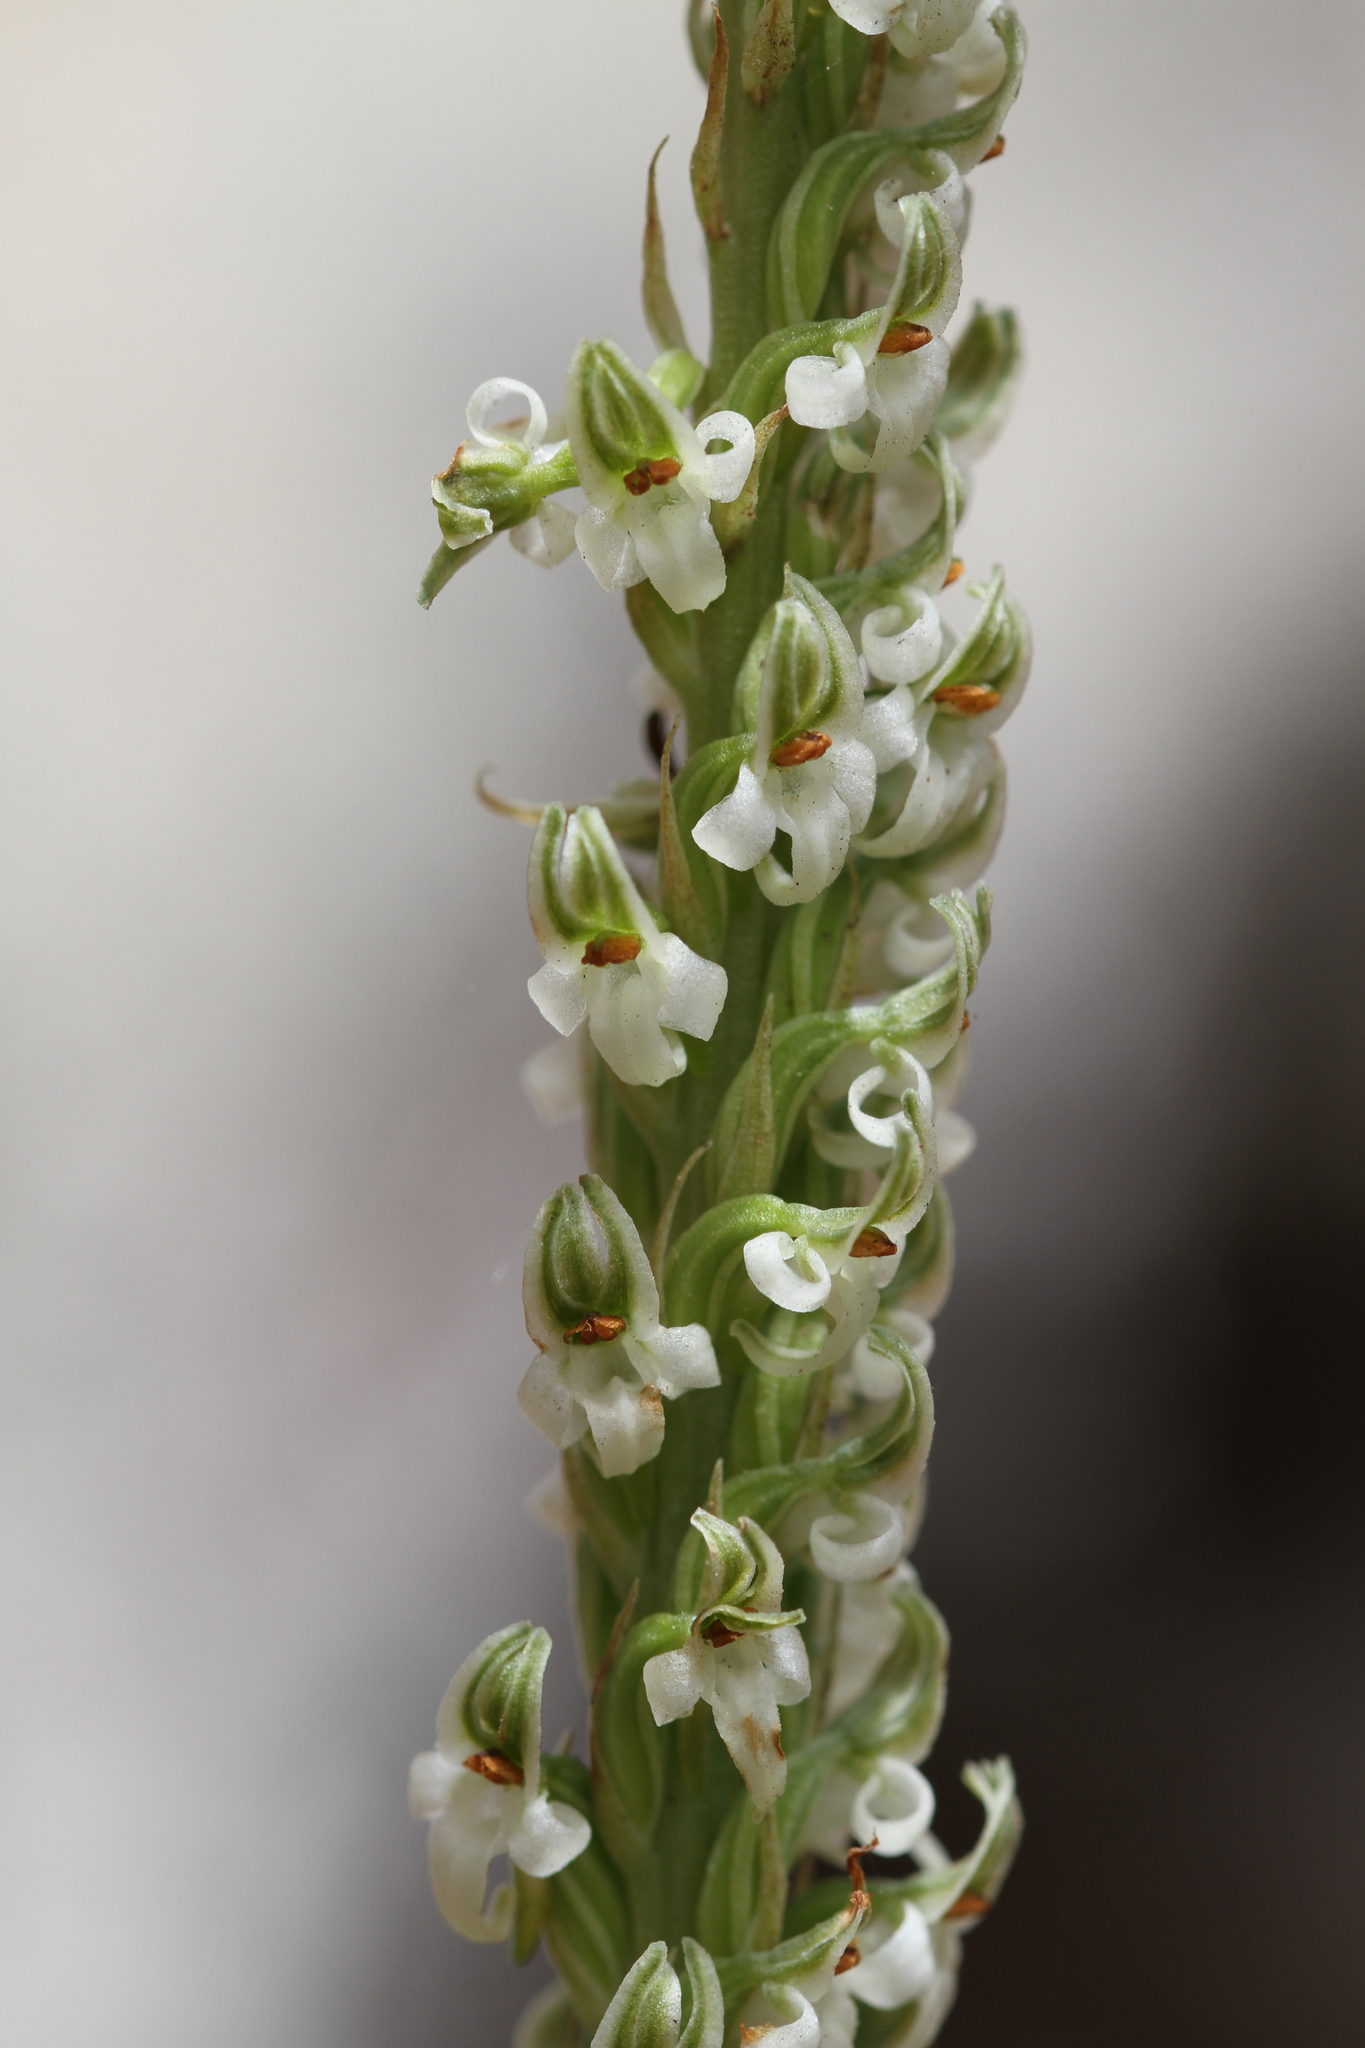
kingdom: Plantae
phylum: Tracheophyta
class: Liliopsida
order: Asparagales
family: Orchidaceae
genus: Platanthera
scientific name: Platanthera yadonii
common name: Yadon’s piperia
